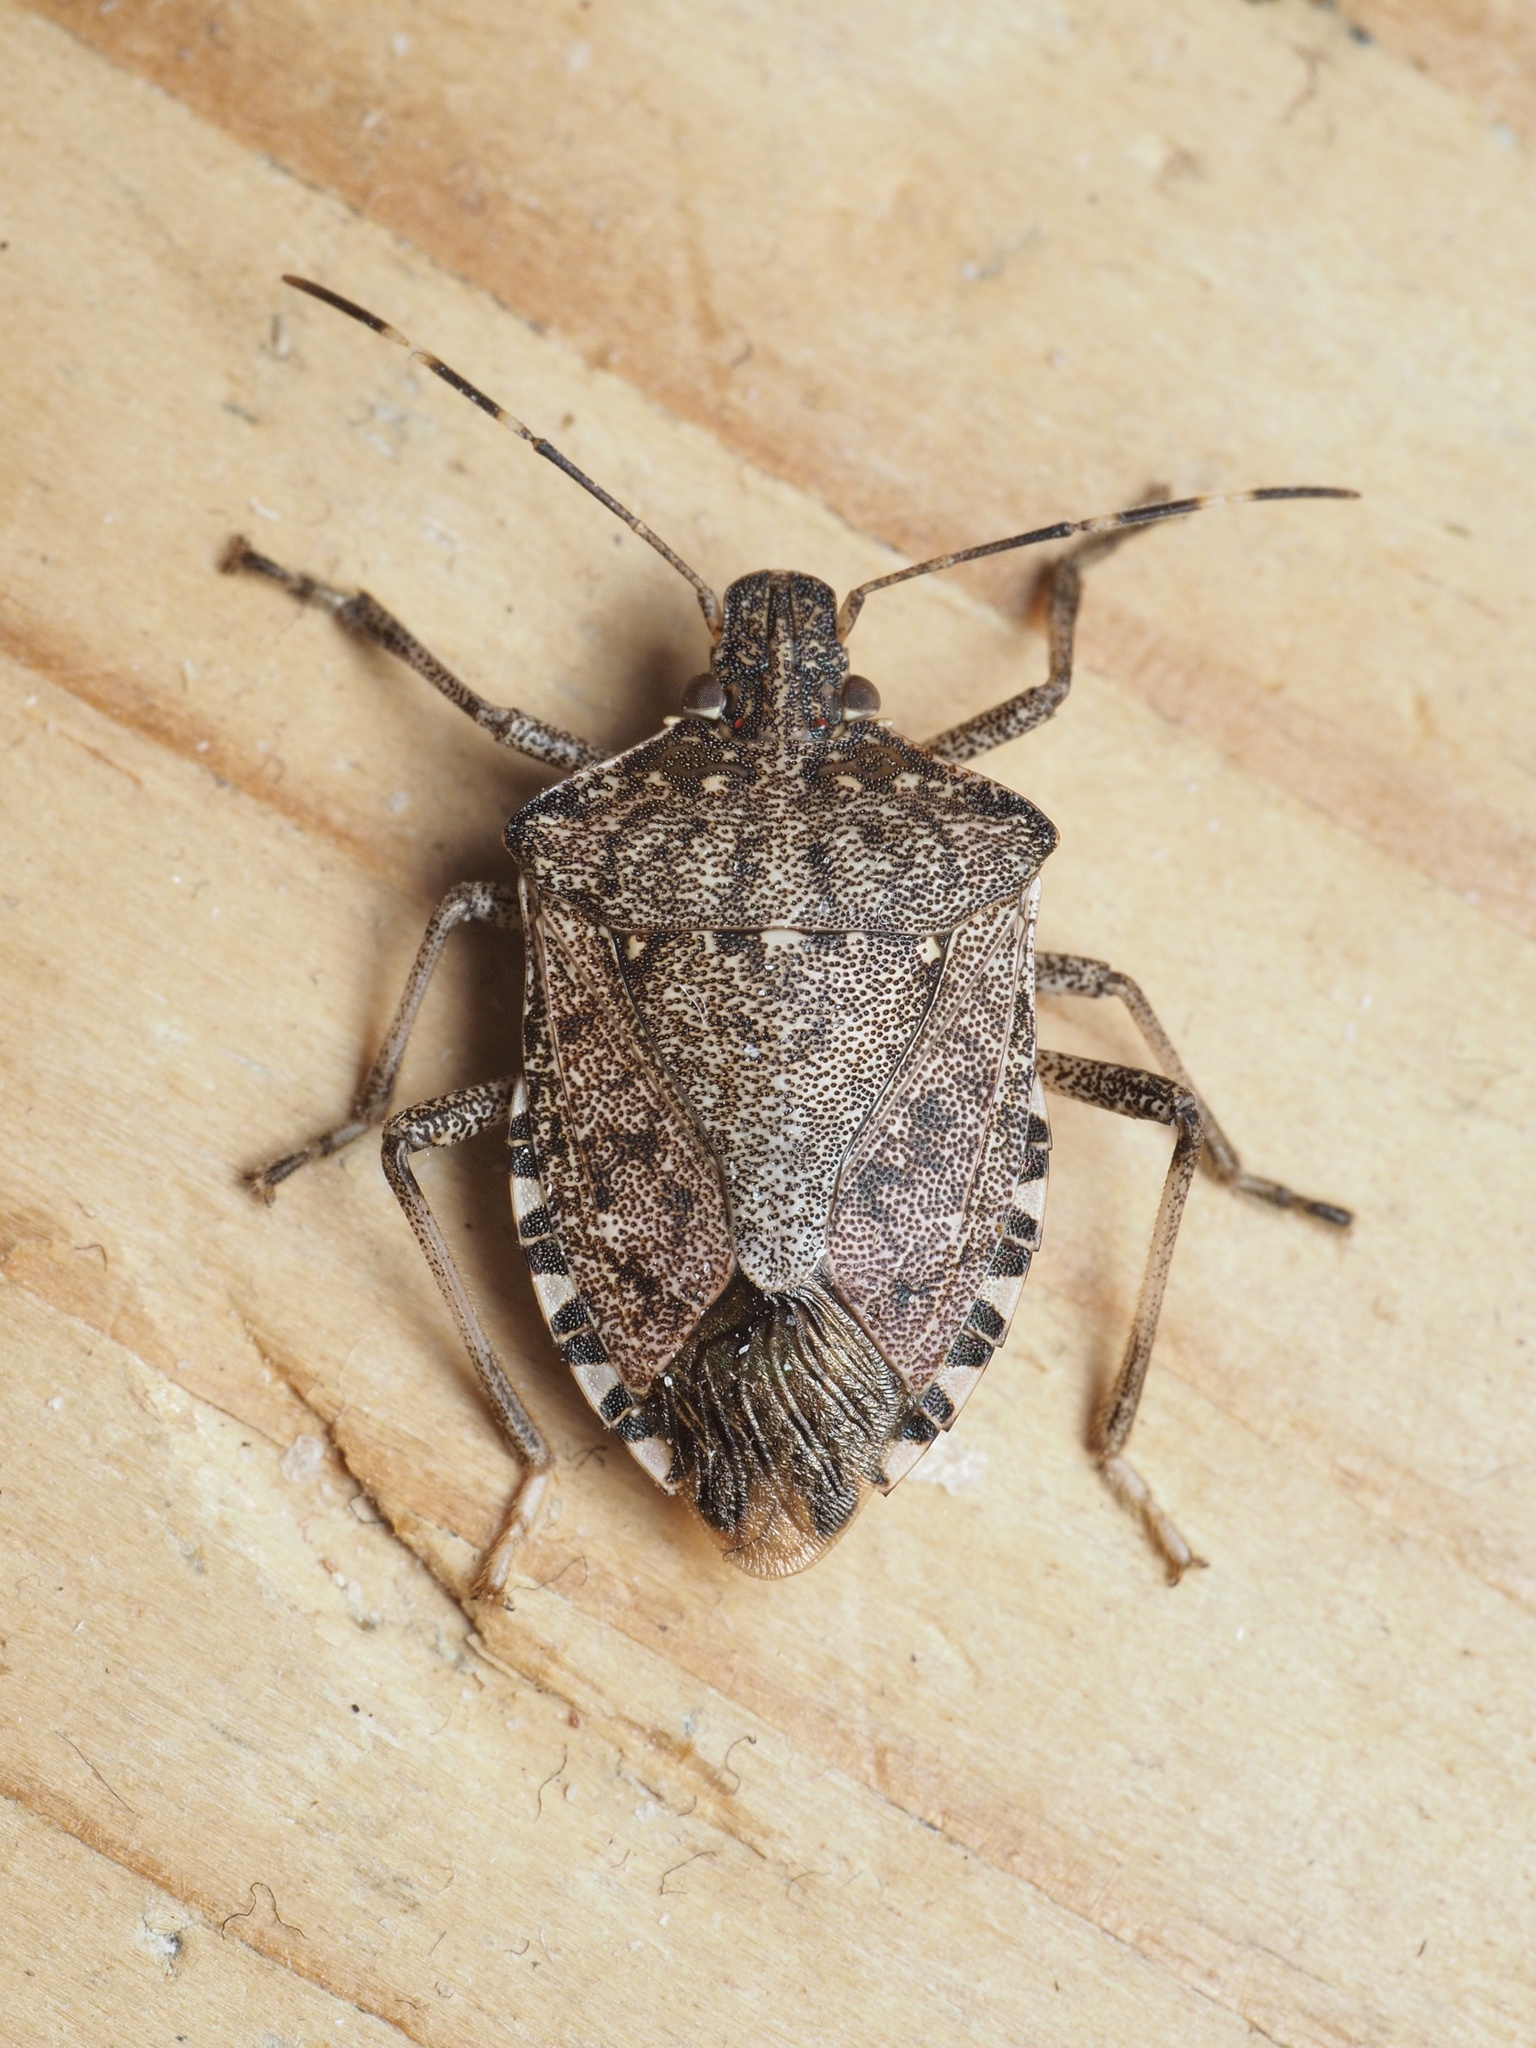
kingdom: Animalia
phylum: Arthropoda
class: Insecta
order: Hemiptera
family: Pentatomidae
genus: Halyomorpha
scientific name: Halyomorpha halys
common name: Brown marmorated stink bug
